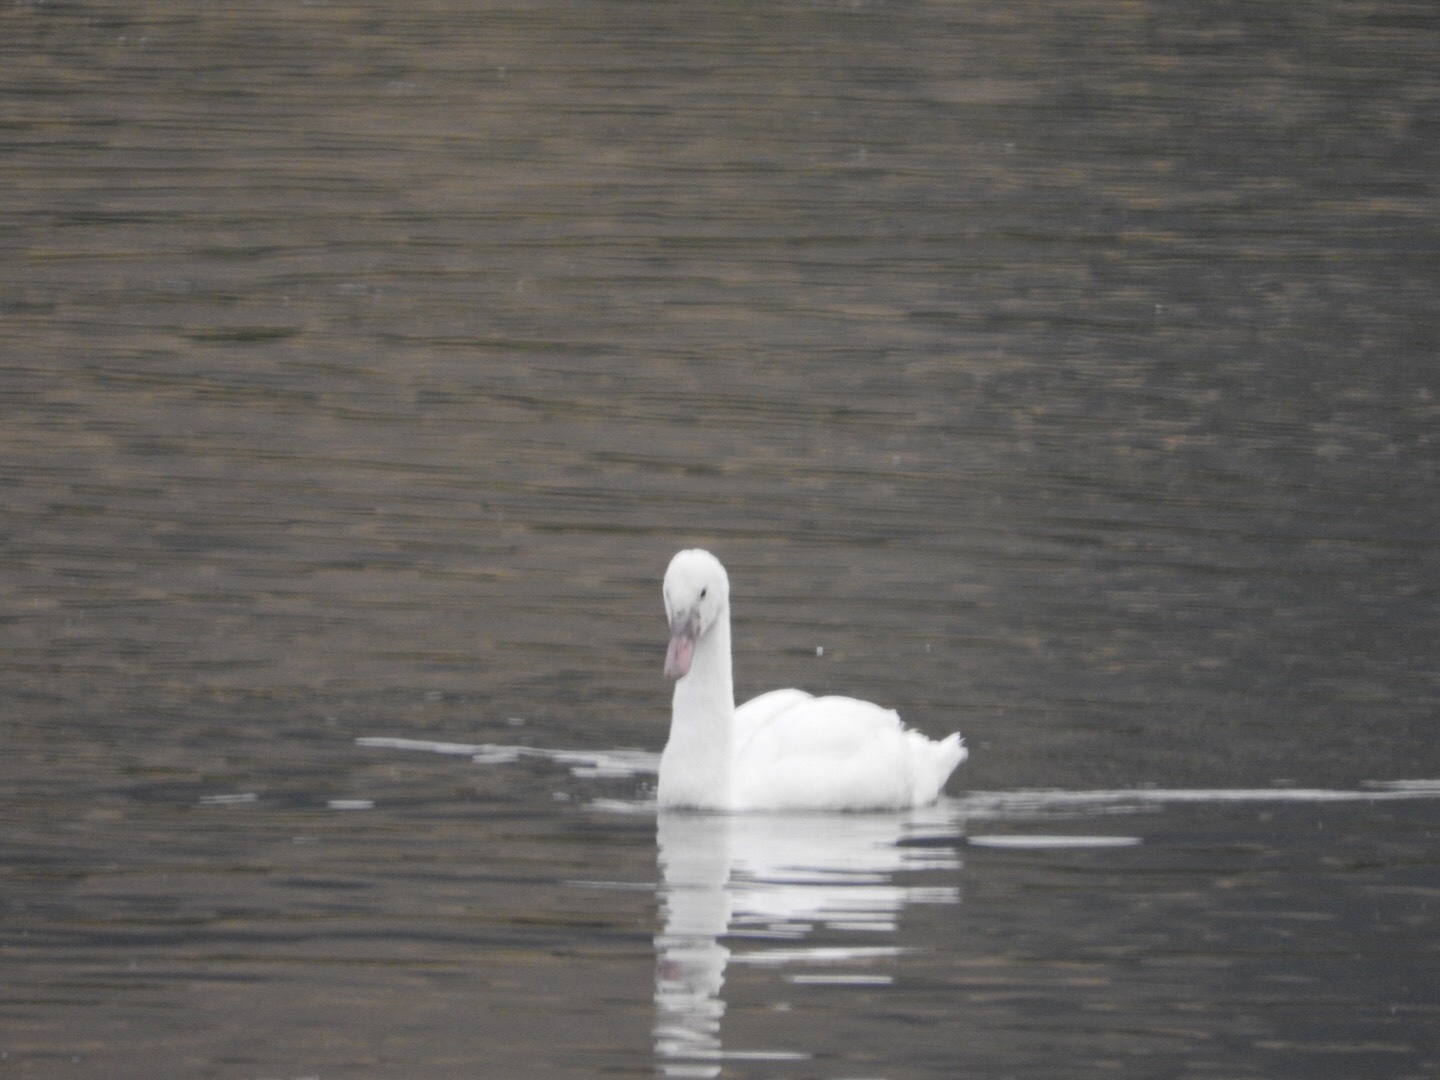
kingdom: Animalia
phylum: Chordata
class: Aves
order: Anseriformes
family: Anatidae
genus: Cygnus
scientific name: Cygnus columbianus
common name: Tundra swan
